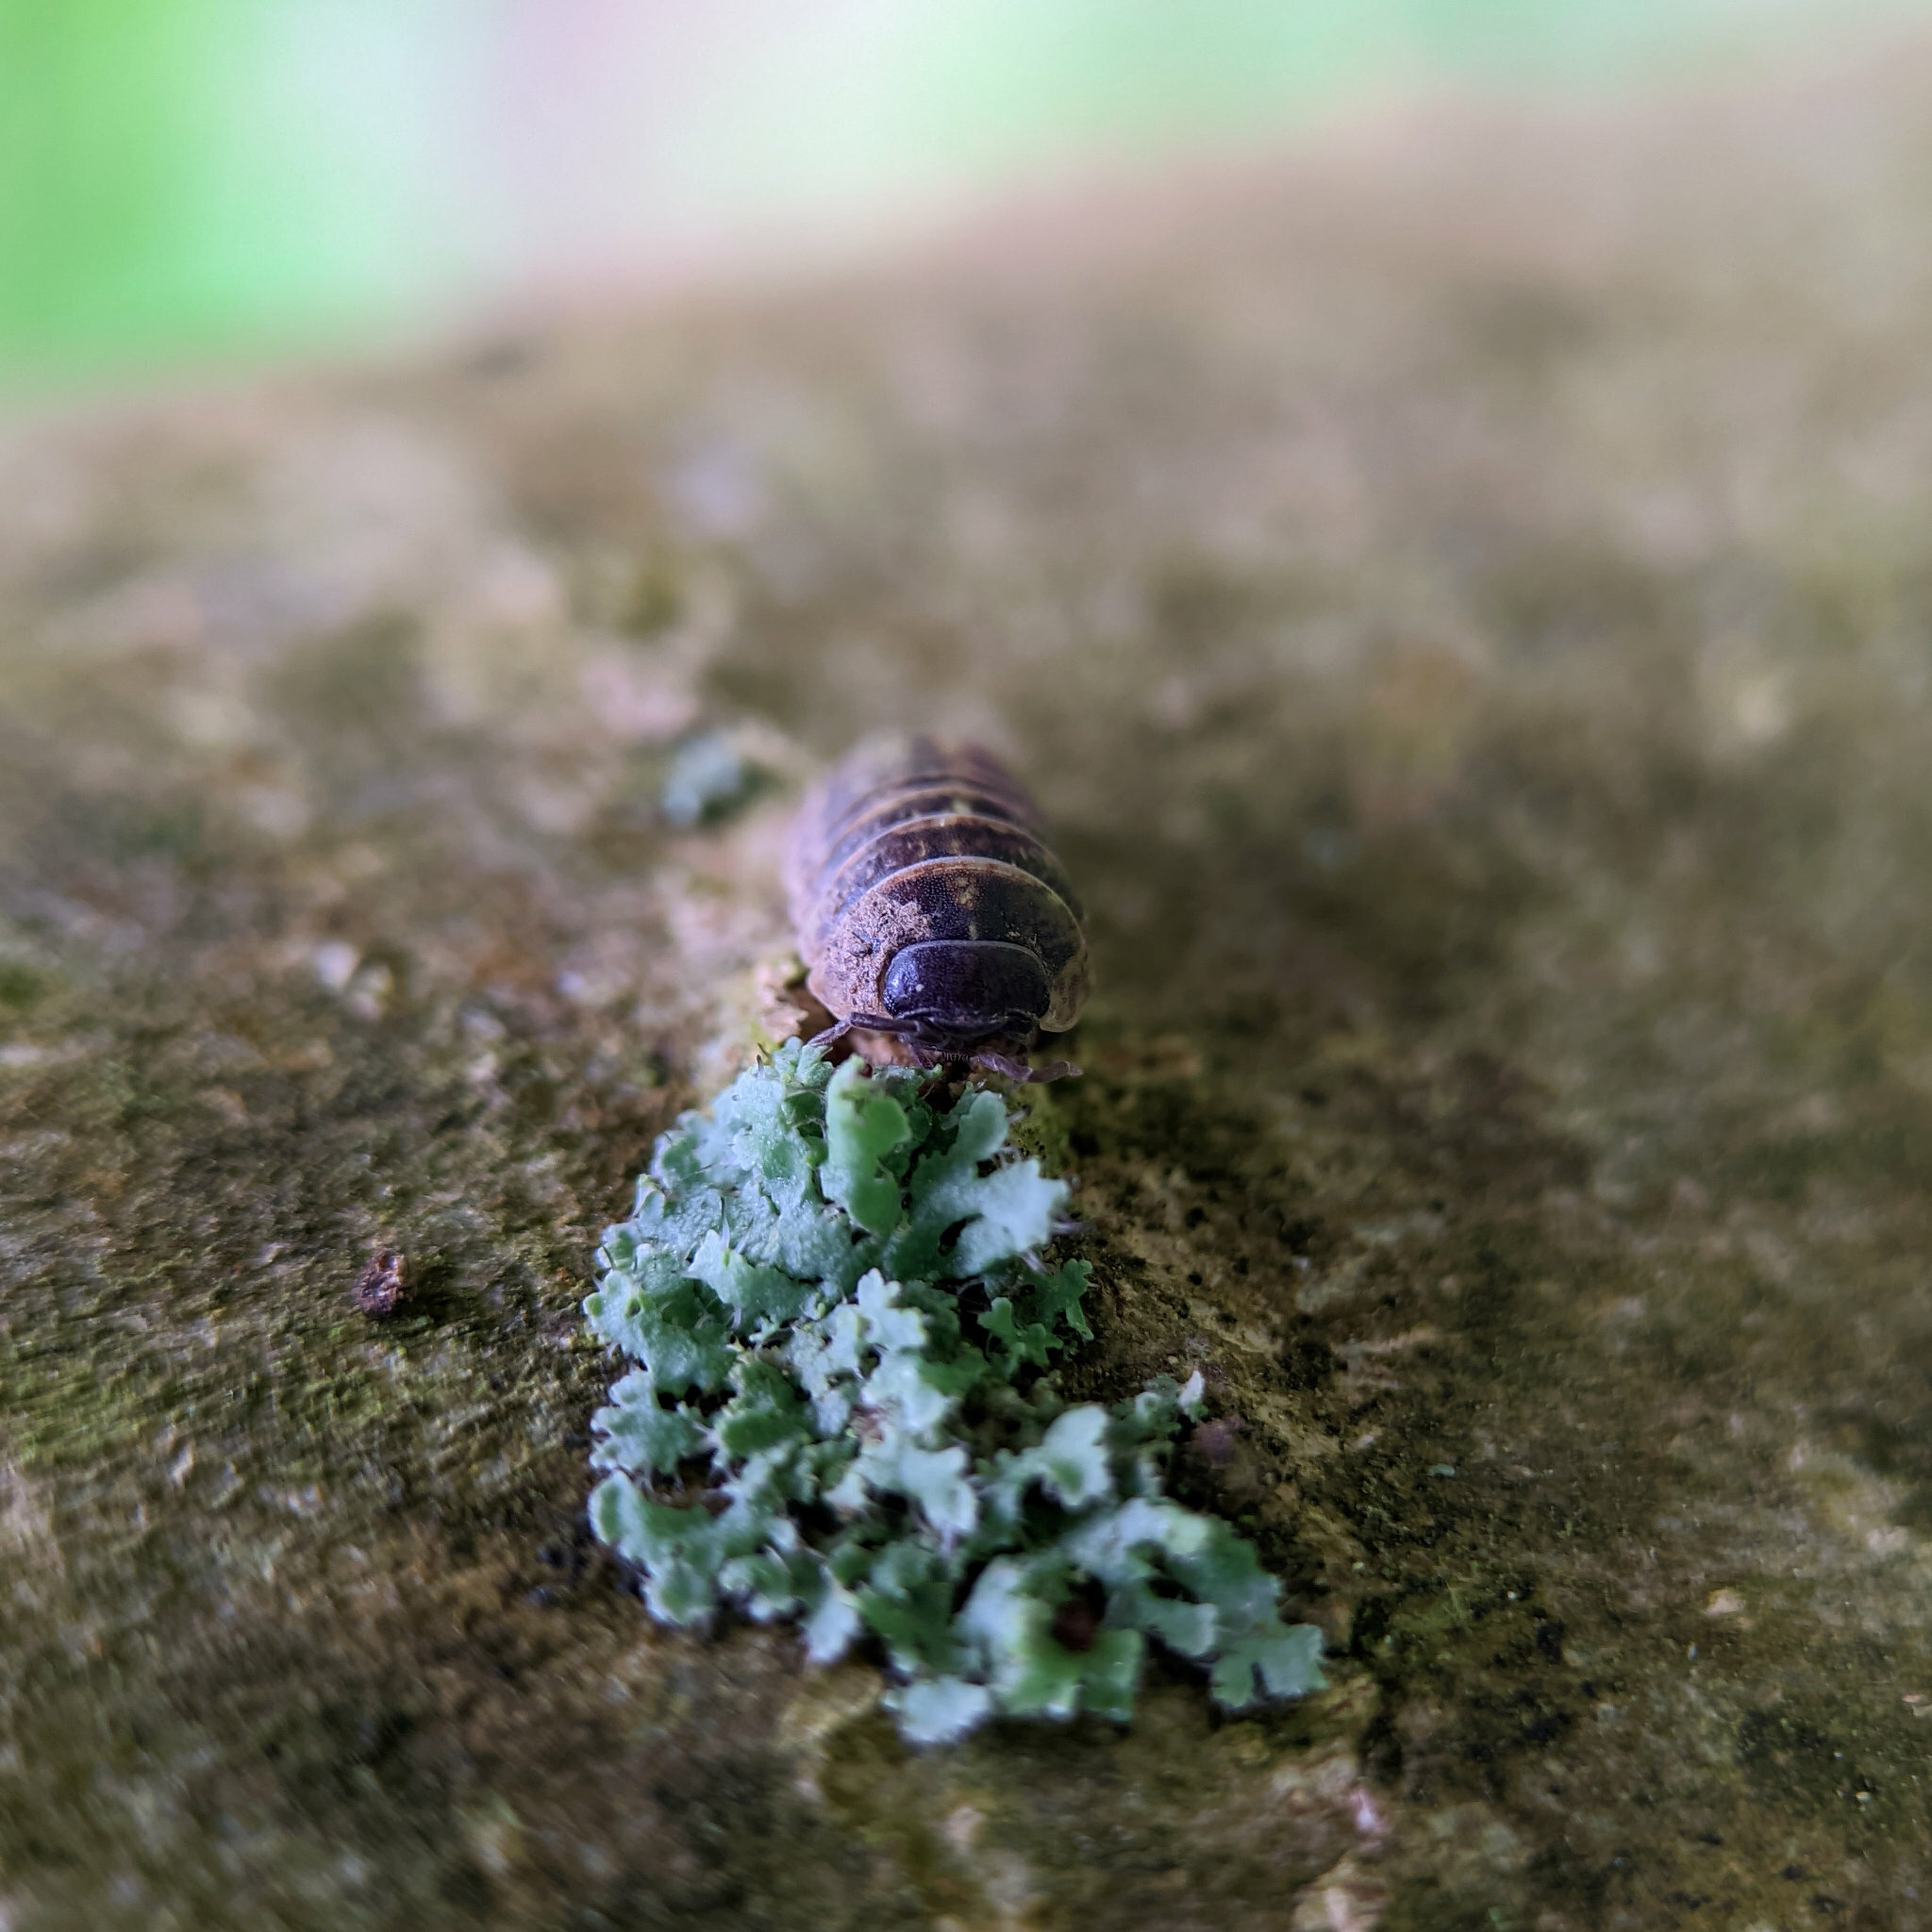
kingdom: Animalia
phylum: Arthropoda
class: Malacostraca
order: Isopoda
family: Armadillidiidae
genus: Armadillidium
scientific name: Armadillidium vulgare
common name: Common pill woodlouse
